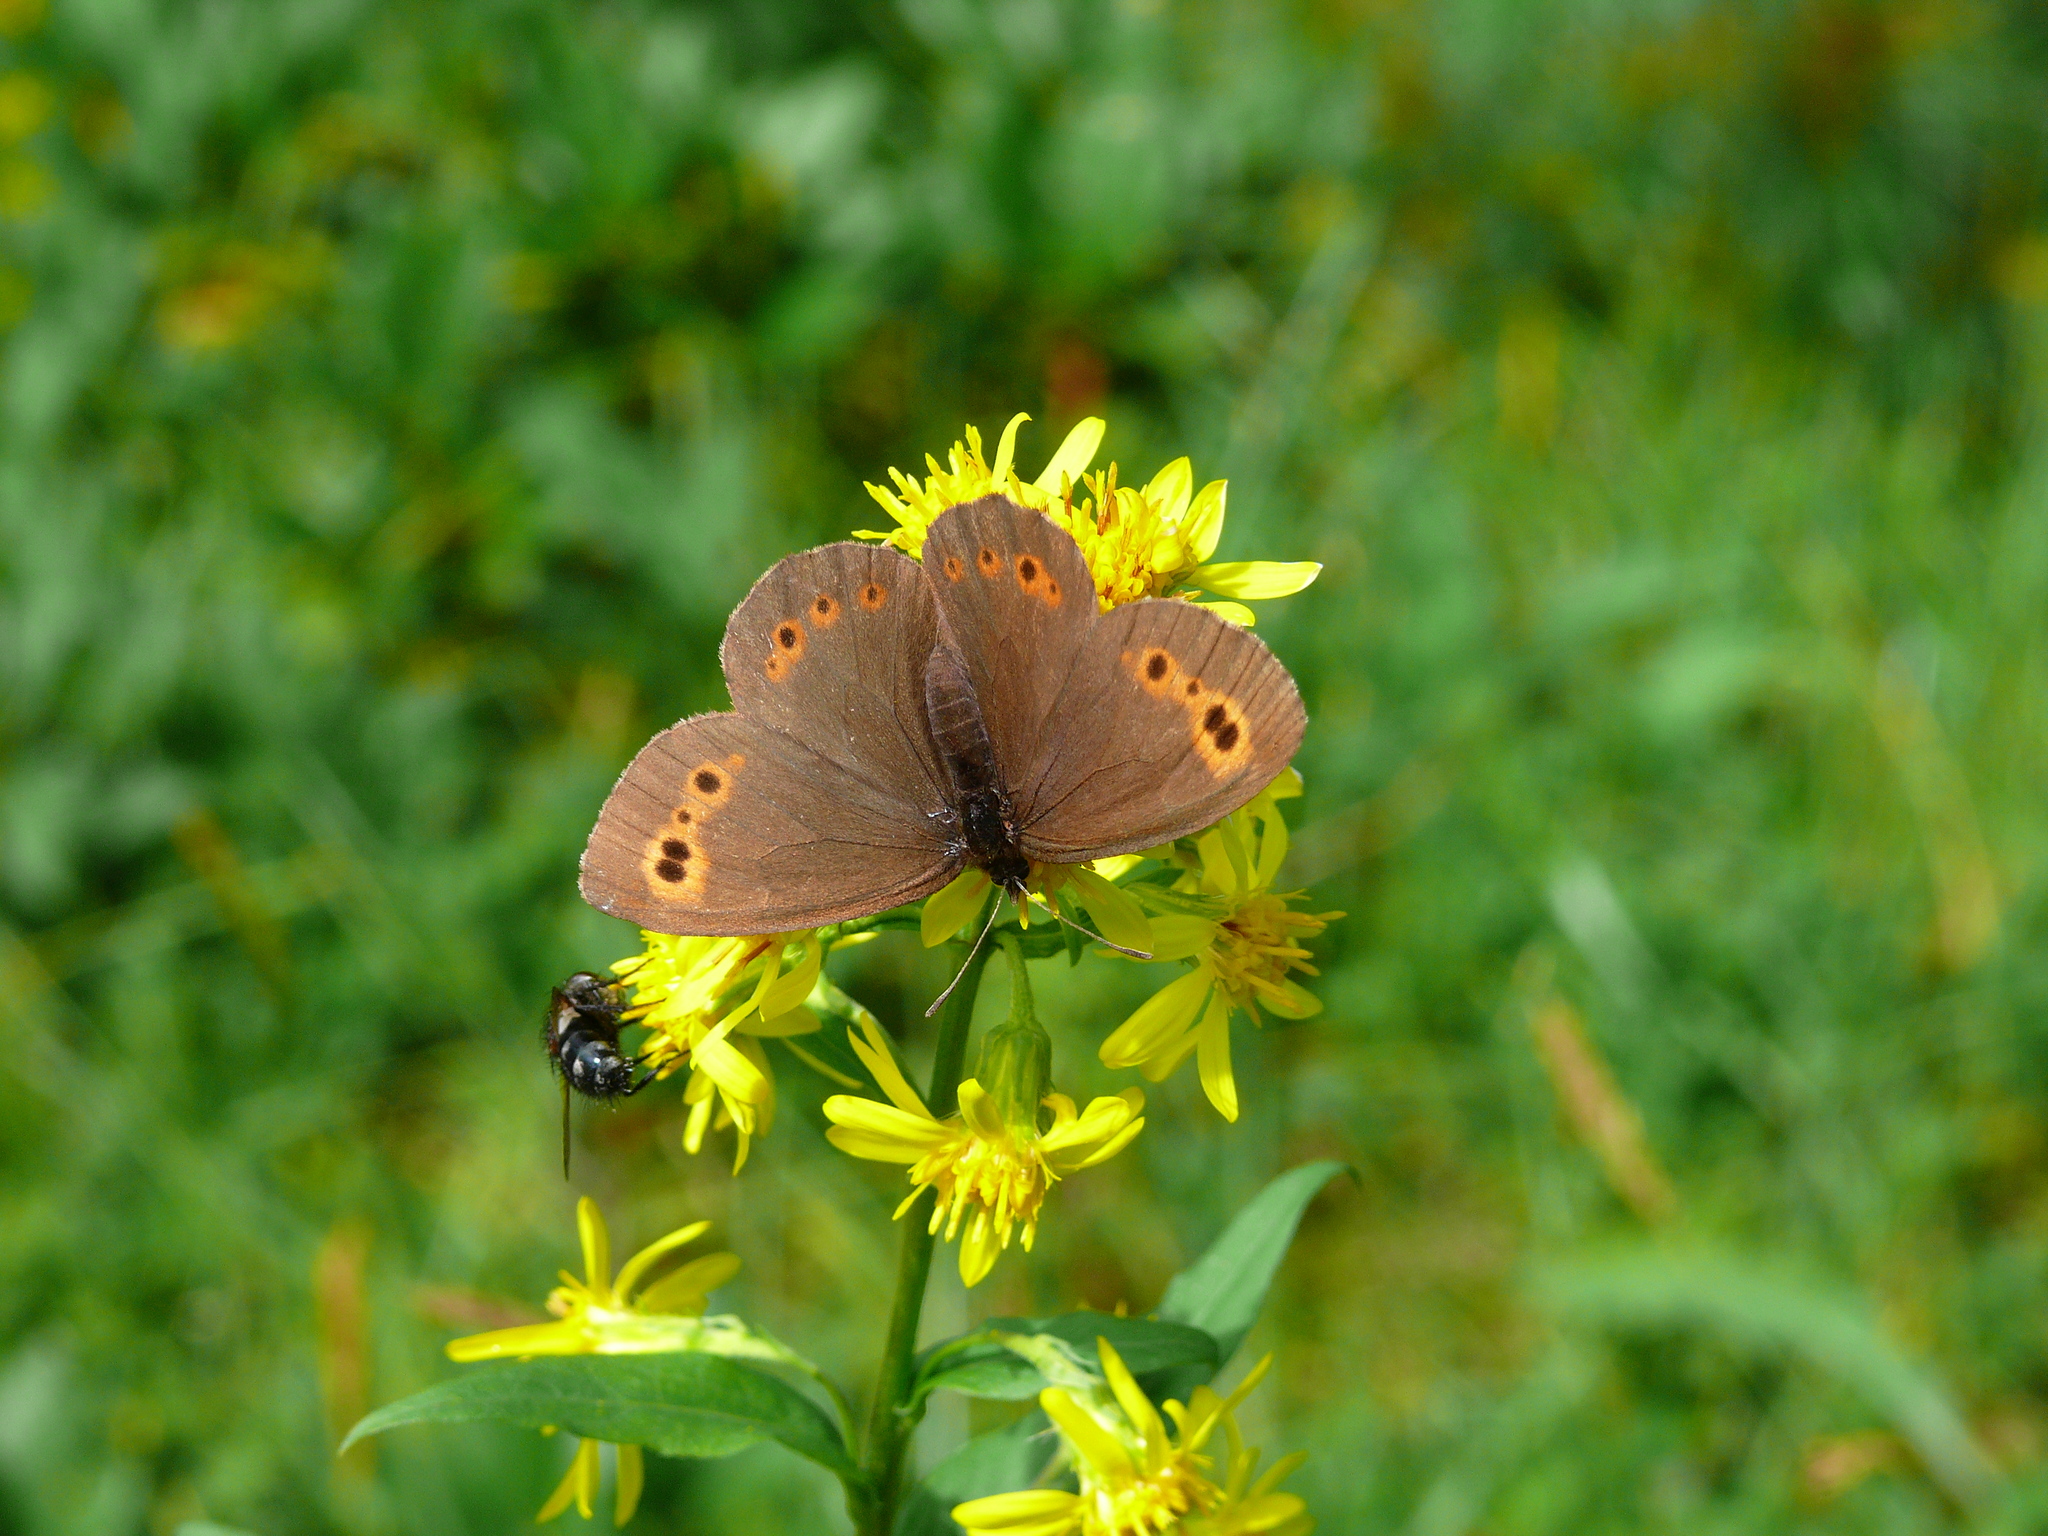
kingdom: Animalia
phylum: Arthropoda
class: Insecta
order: Lepidoptera
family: Nymphalidae
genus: Erebia
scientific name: Erebia jeniseiensis
